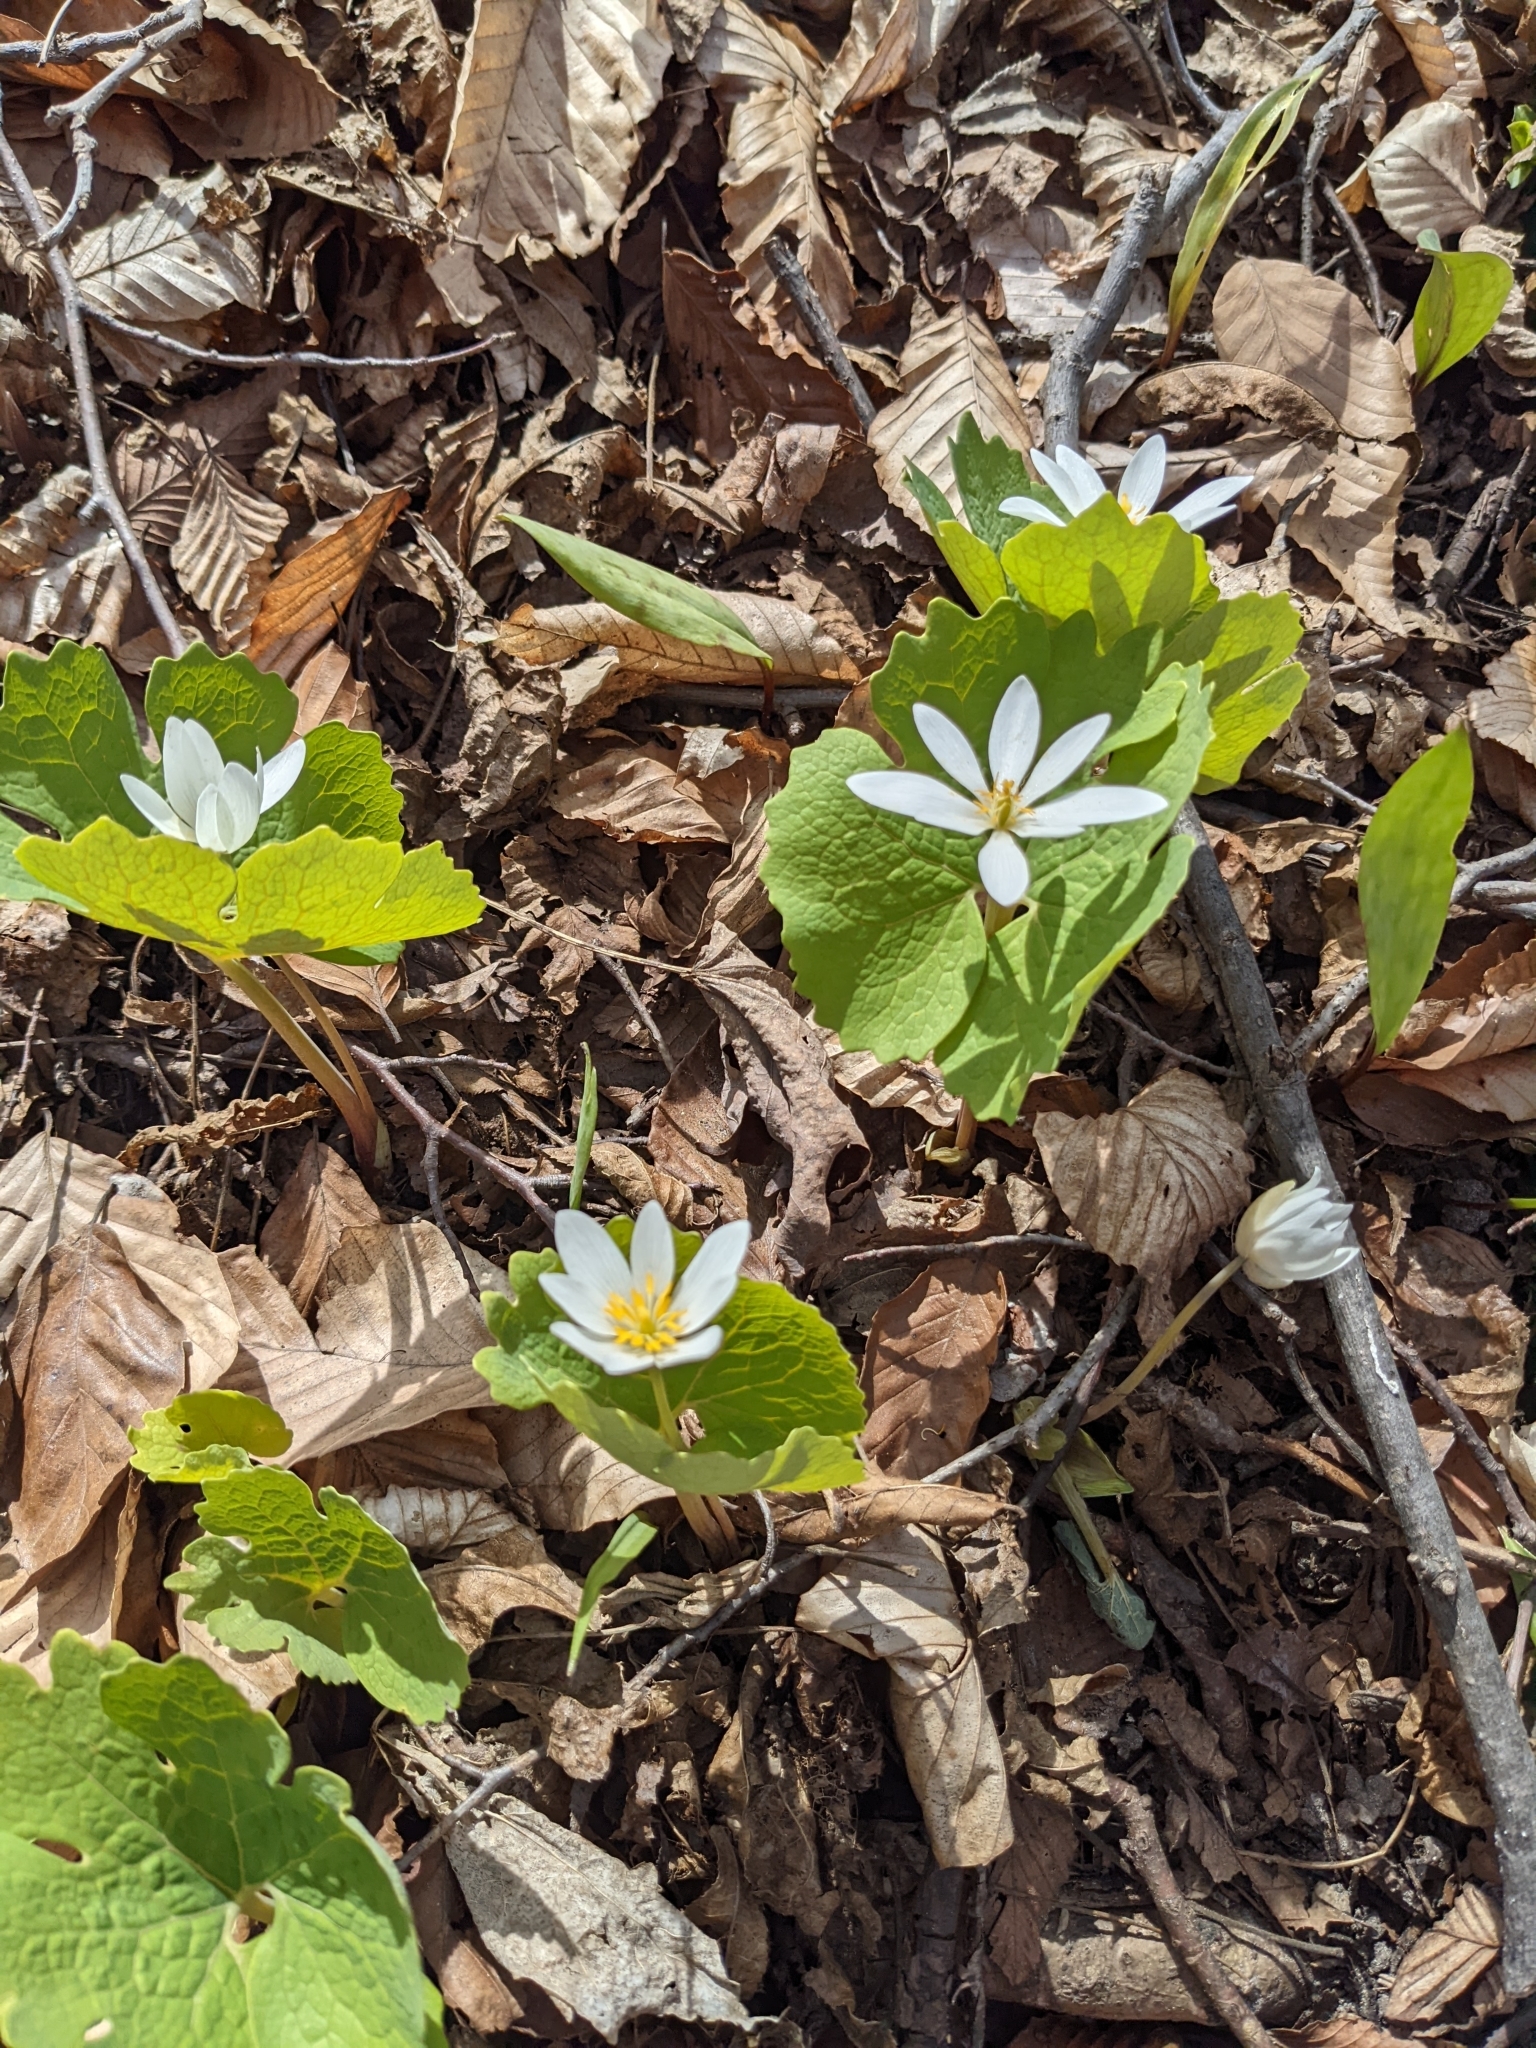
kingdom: Plantae
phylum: Tracheophyta
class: Magnoliopsida
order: Ranunculales
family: Papaveraceae
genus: Sanguinaria
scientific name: Sanguinaria canadensis
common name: Bloodroot
